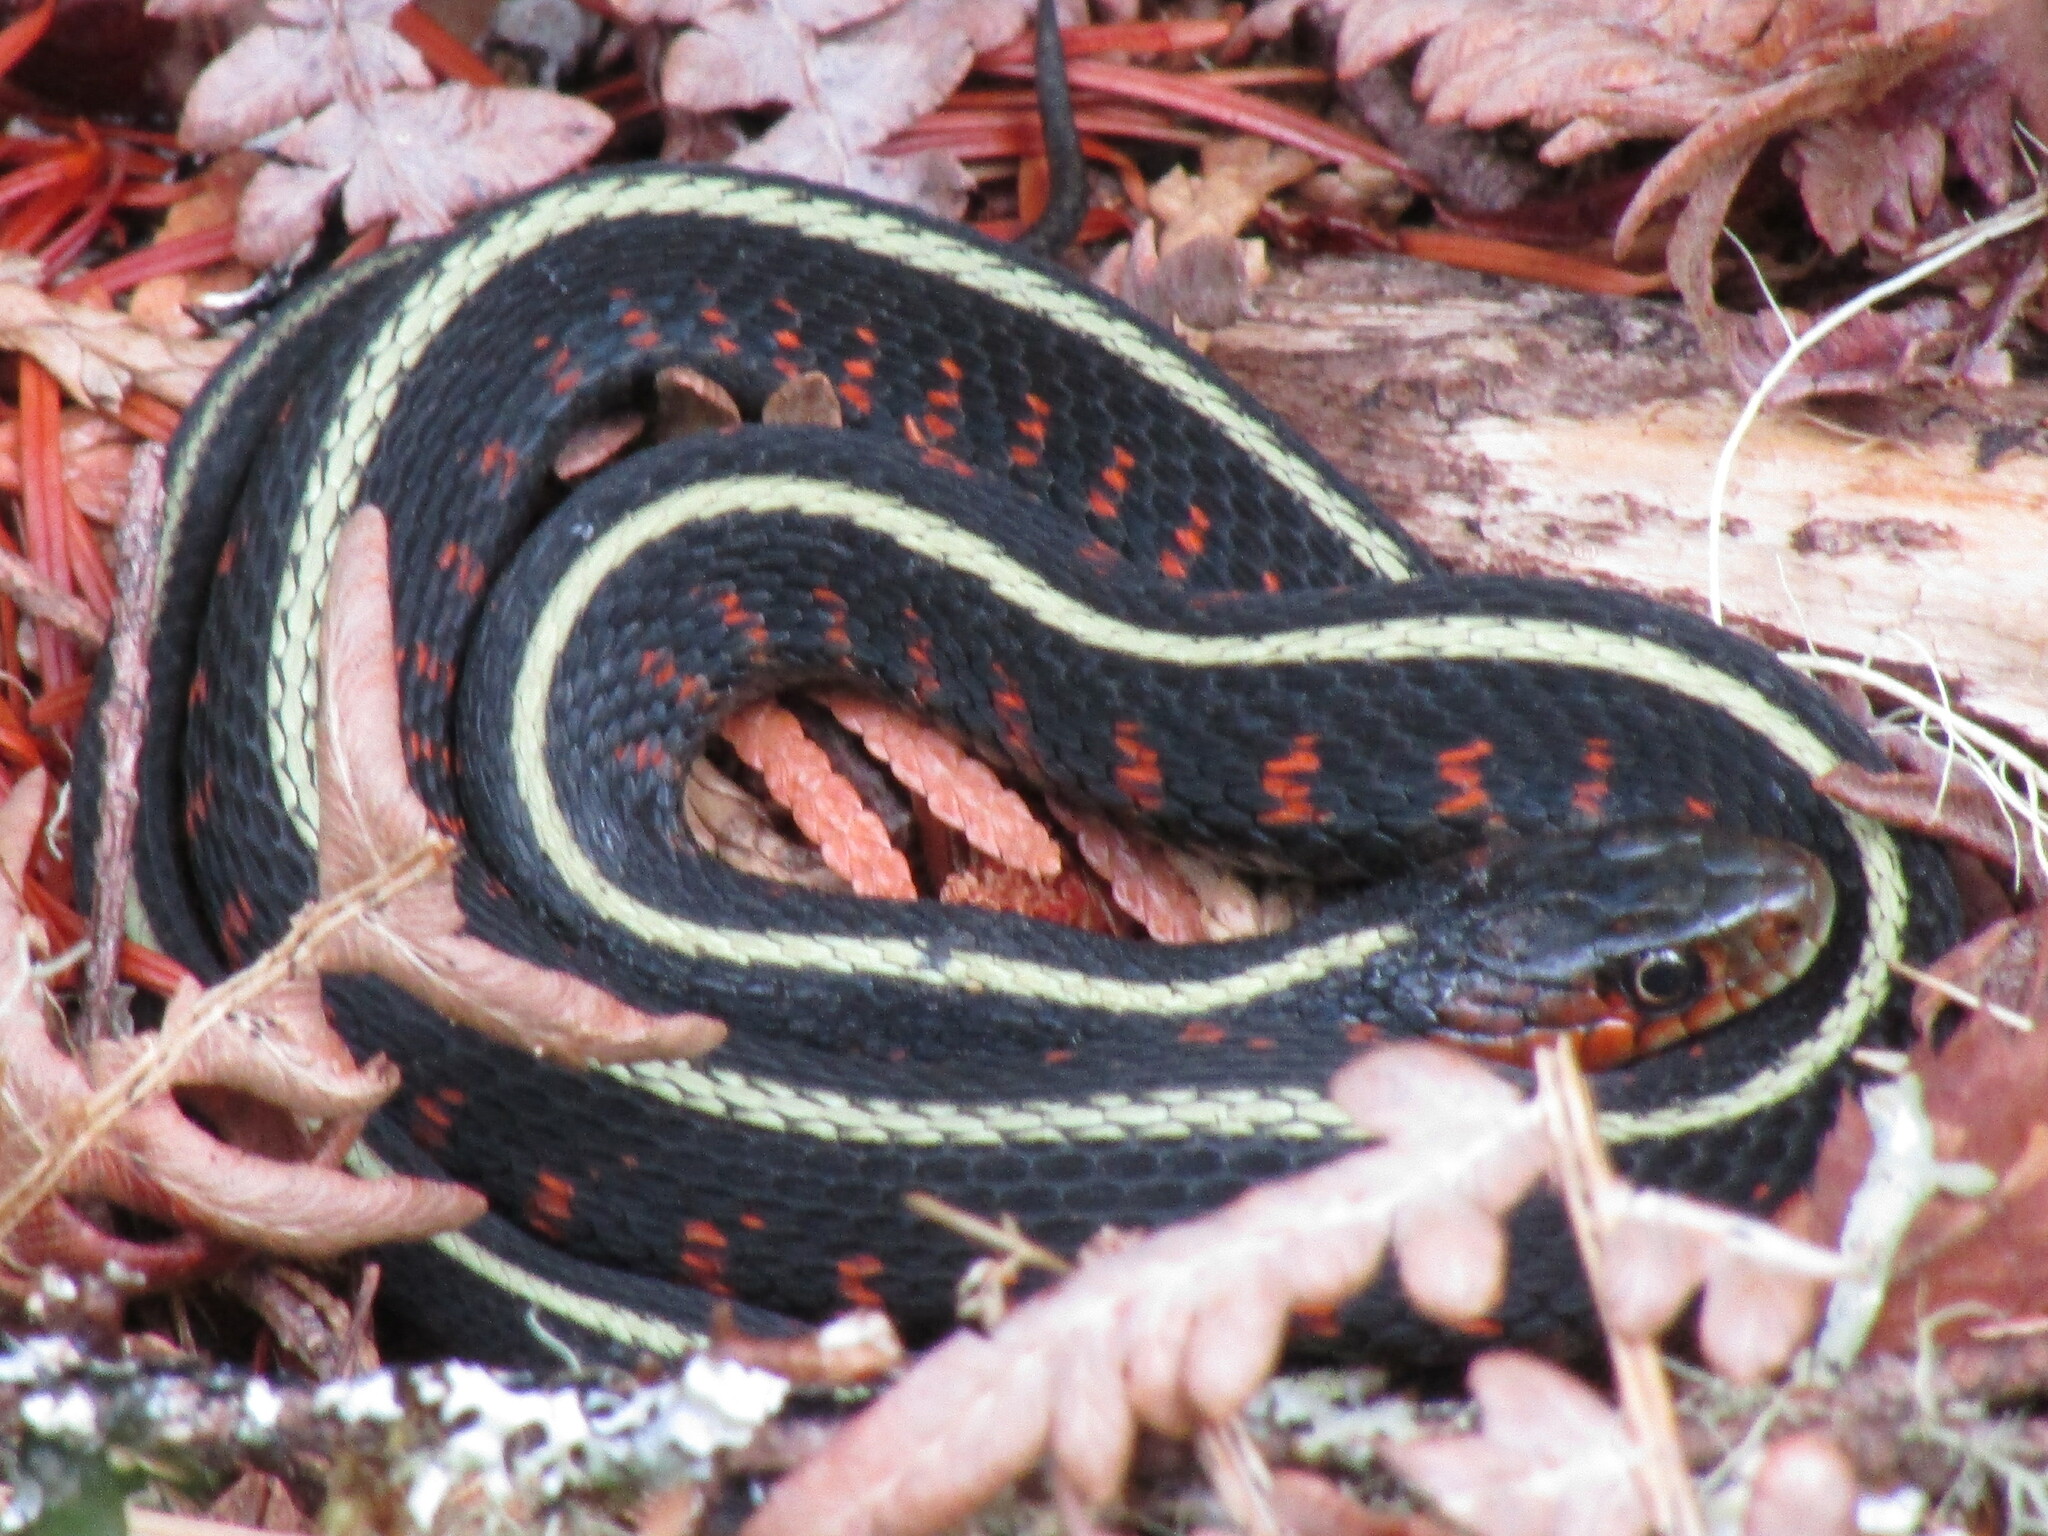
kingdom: Animalia
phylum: Chordata
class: Squamata
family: Colubridae
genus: Thamnophis
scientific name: Thamnophis sirtalis
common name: Common garter snake
